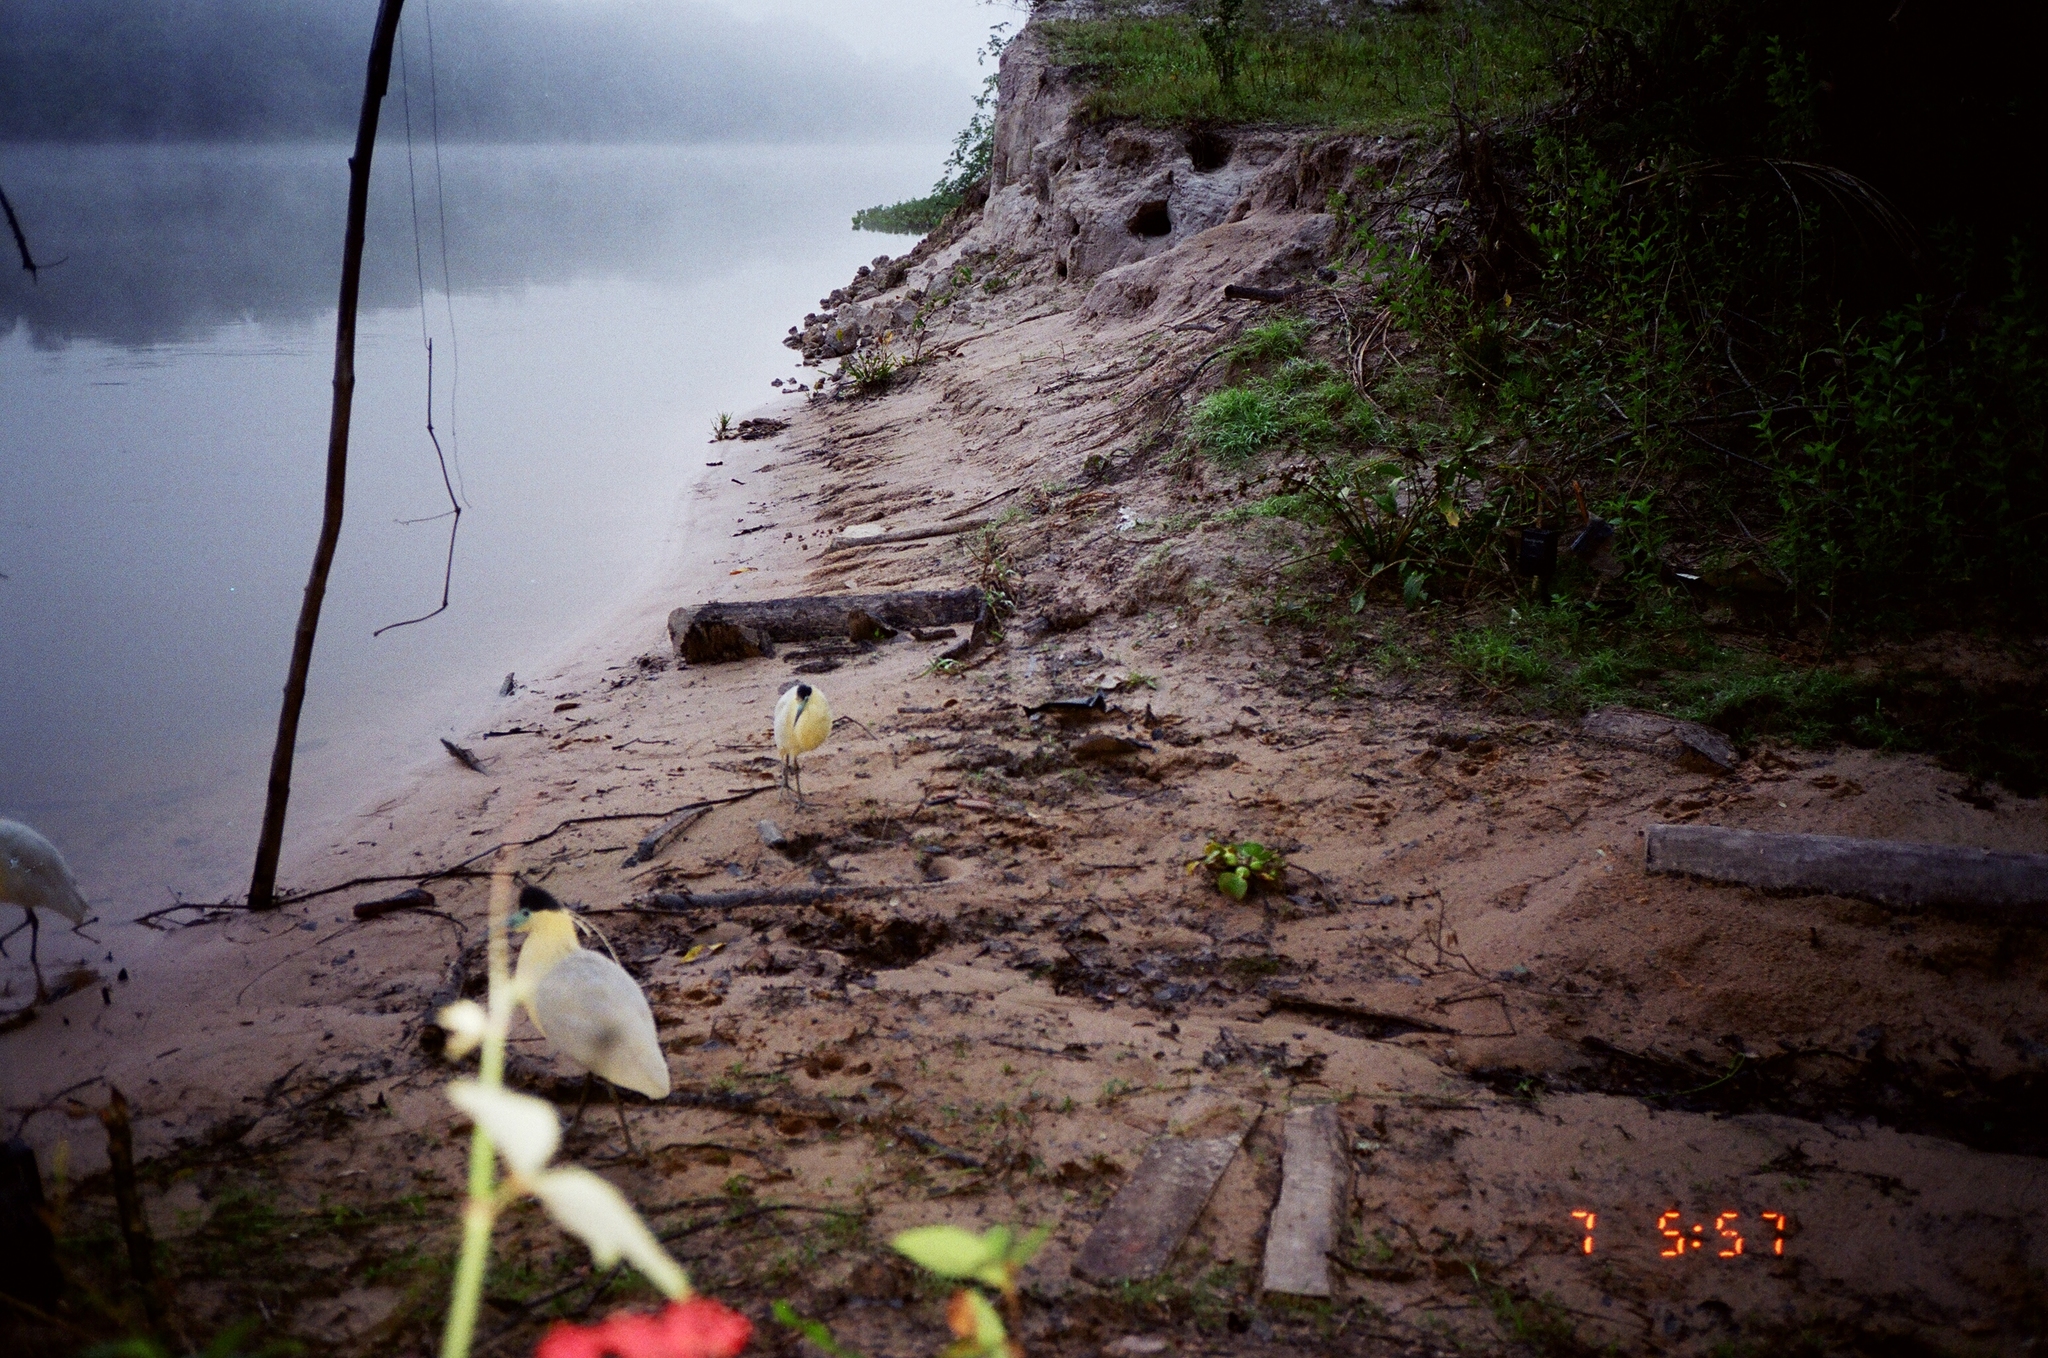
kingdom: Animalia
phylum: Chordata
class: Aves
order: Pelecaniformes
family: Ardeidae
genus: Pilherodius
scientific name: Pilherodius pileatus
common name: Capped heron
